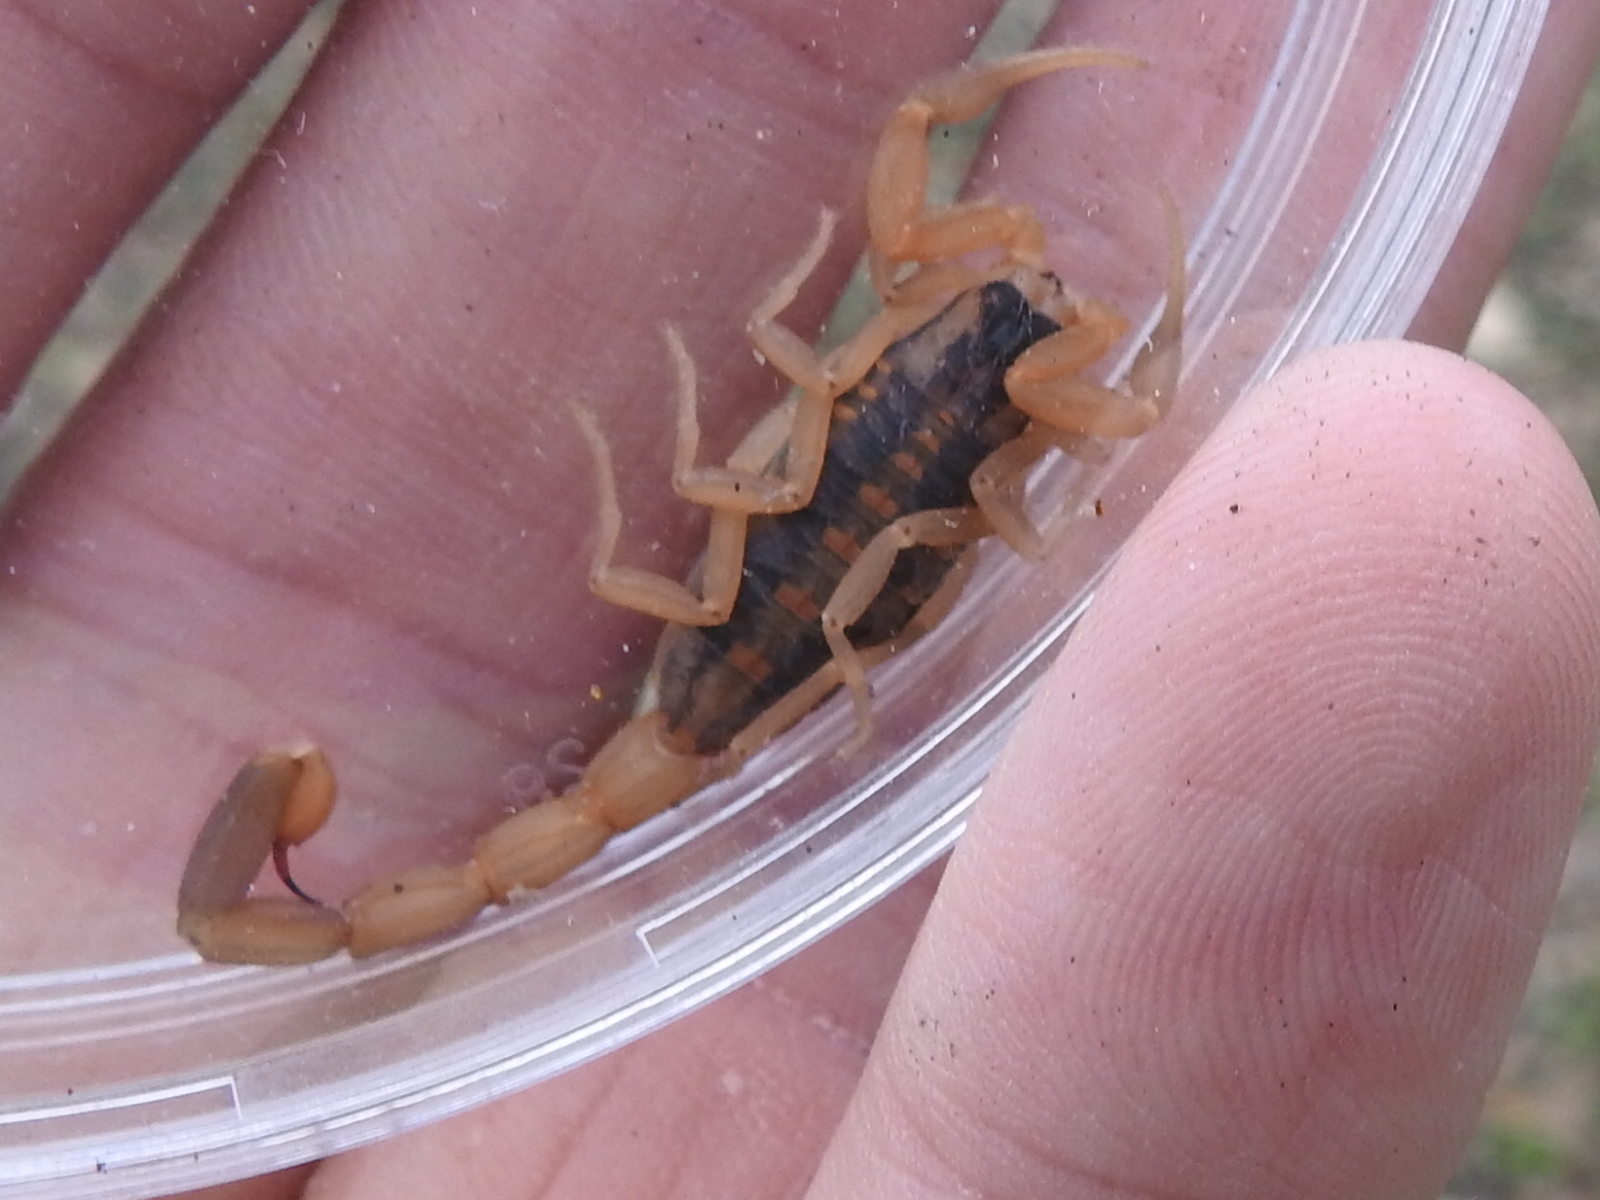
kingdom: Animalia
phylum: Arthropoda
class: Arachnida
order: Scorpiones
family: Buthidae
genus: Centruroides
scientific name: Centruroides vittatus
